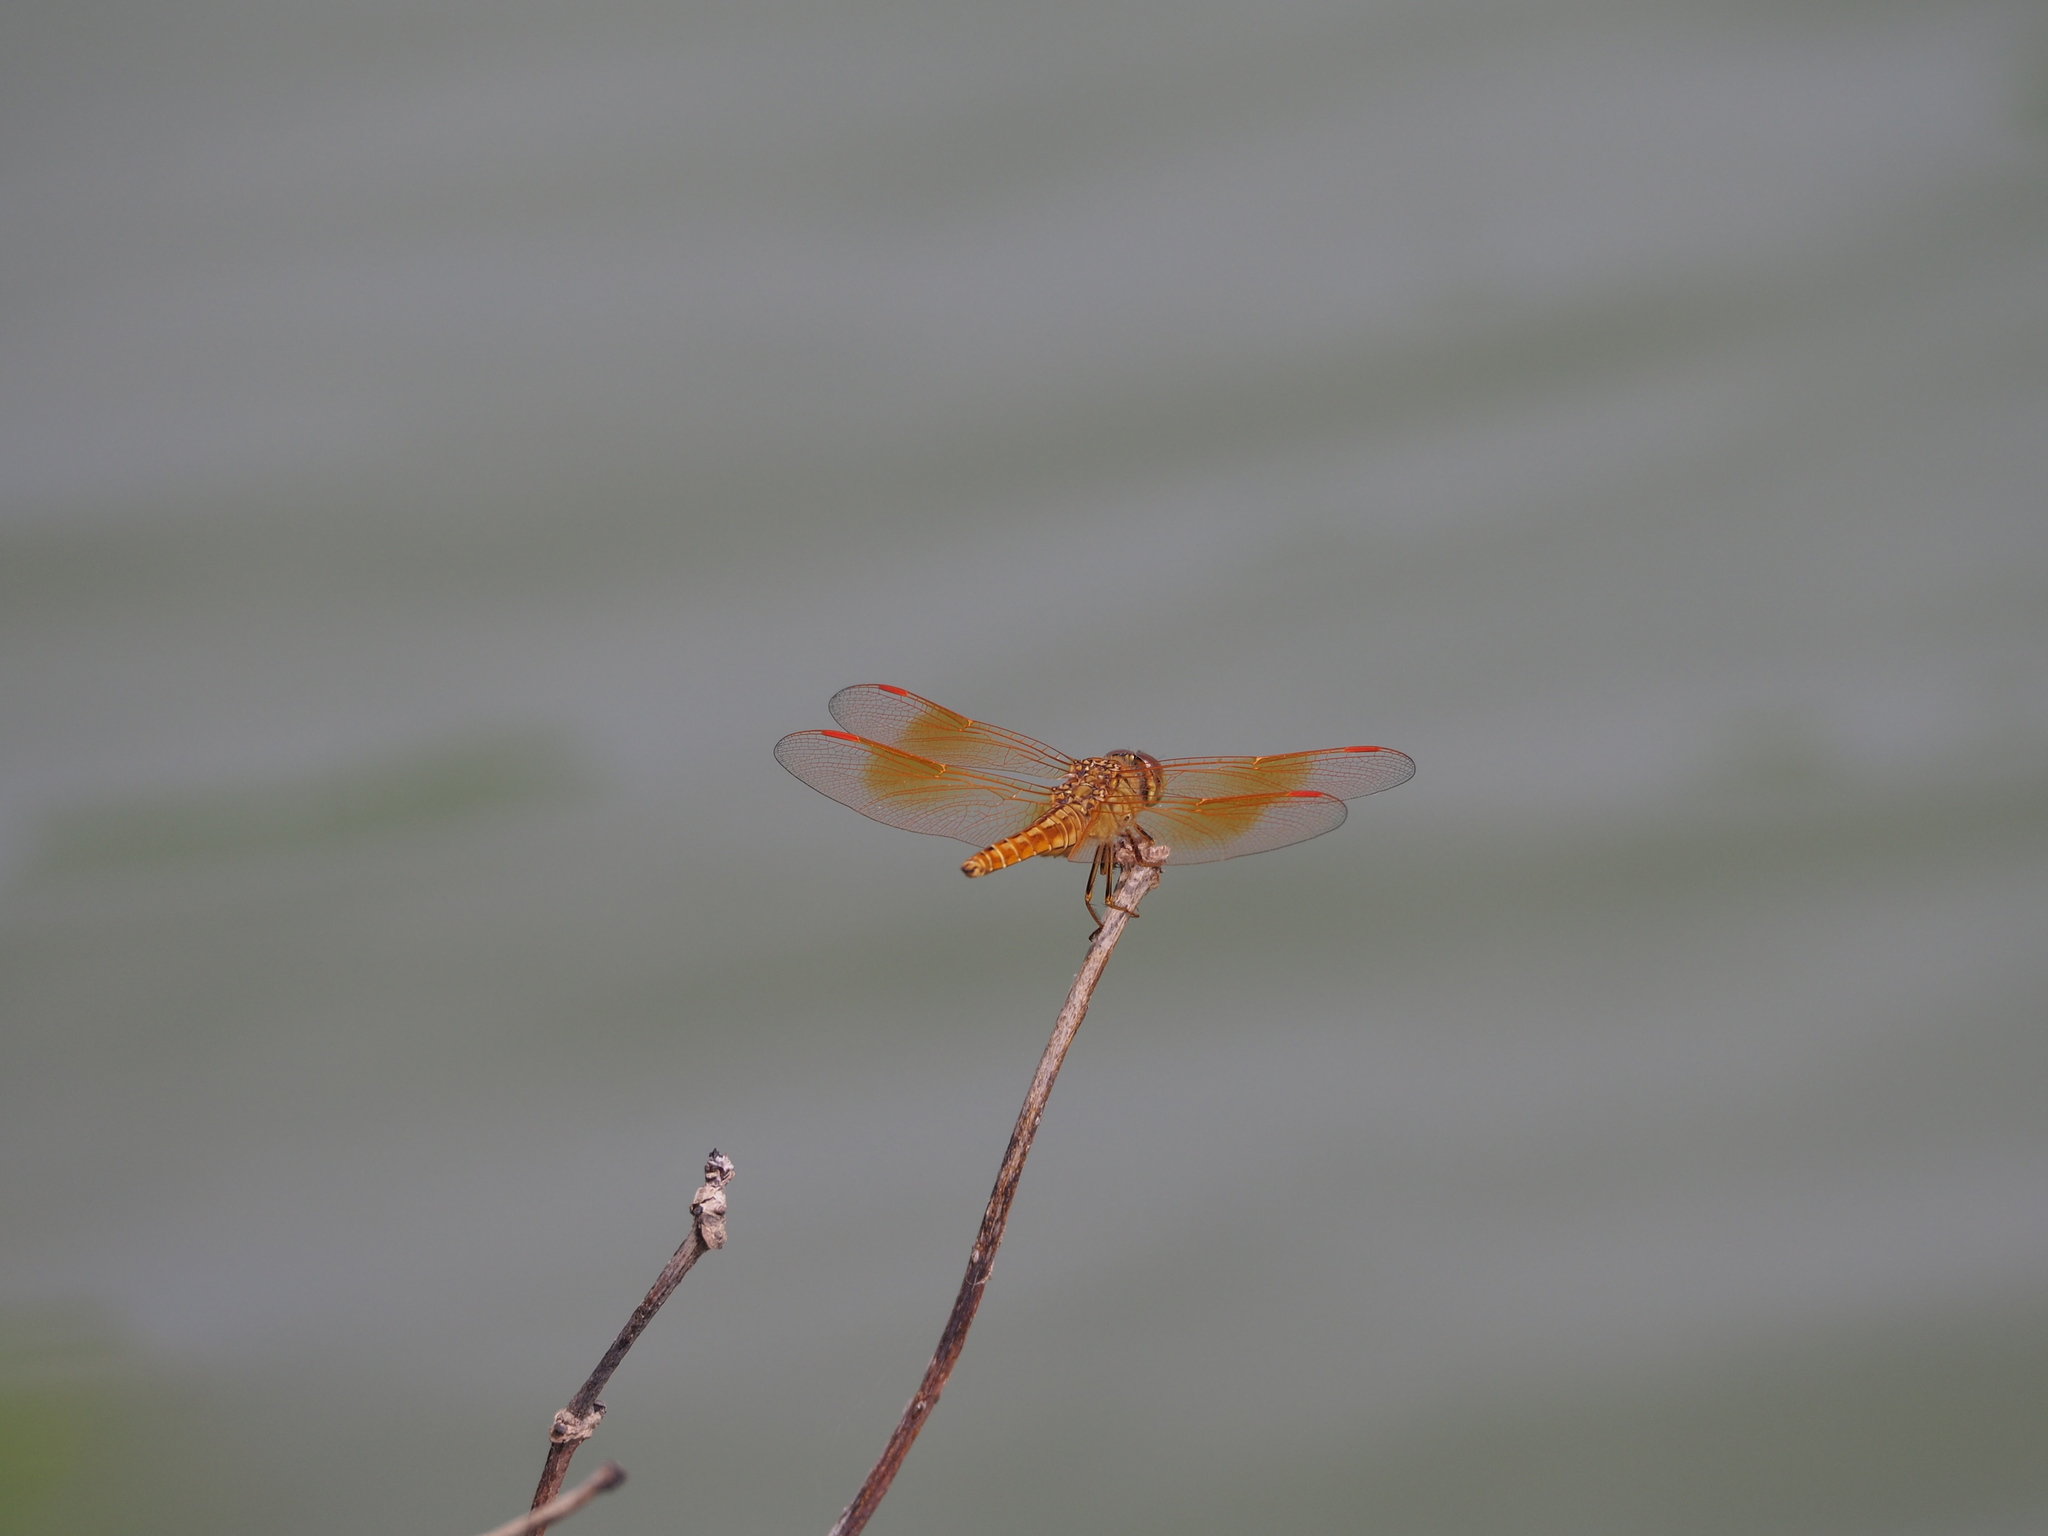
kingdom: Animalia
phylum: Arthropoda
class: Insecta
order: Odonata
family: Libellulidae
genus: Brachythemis
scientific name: Brachythemis contaminata
